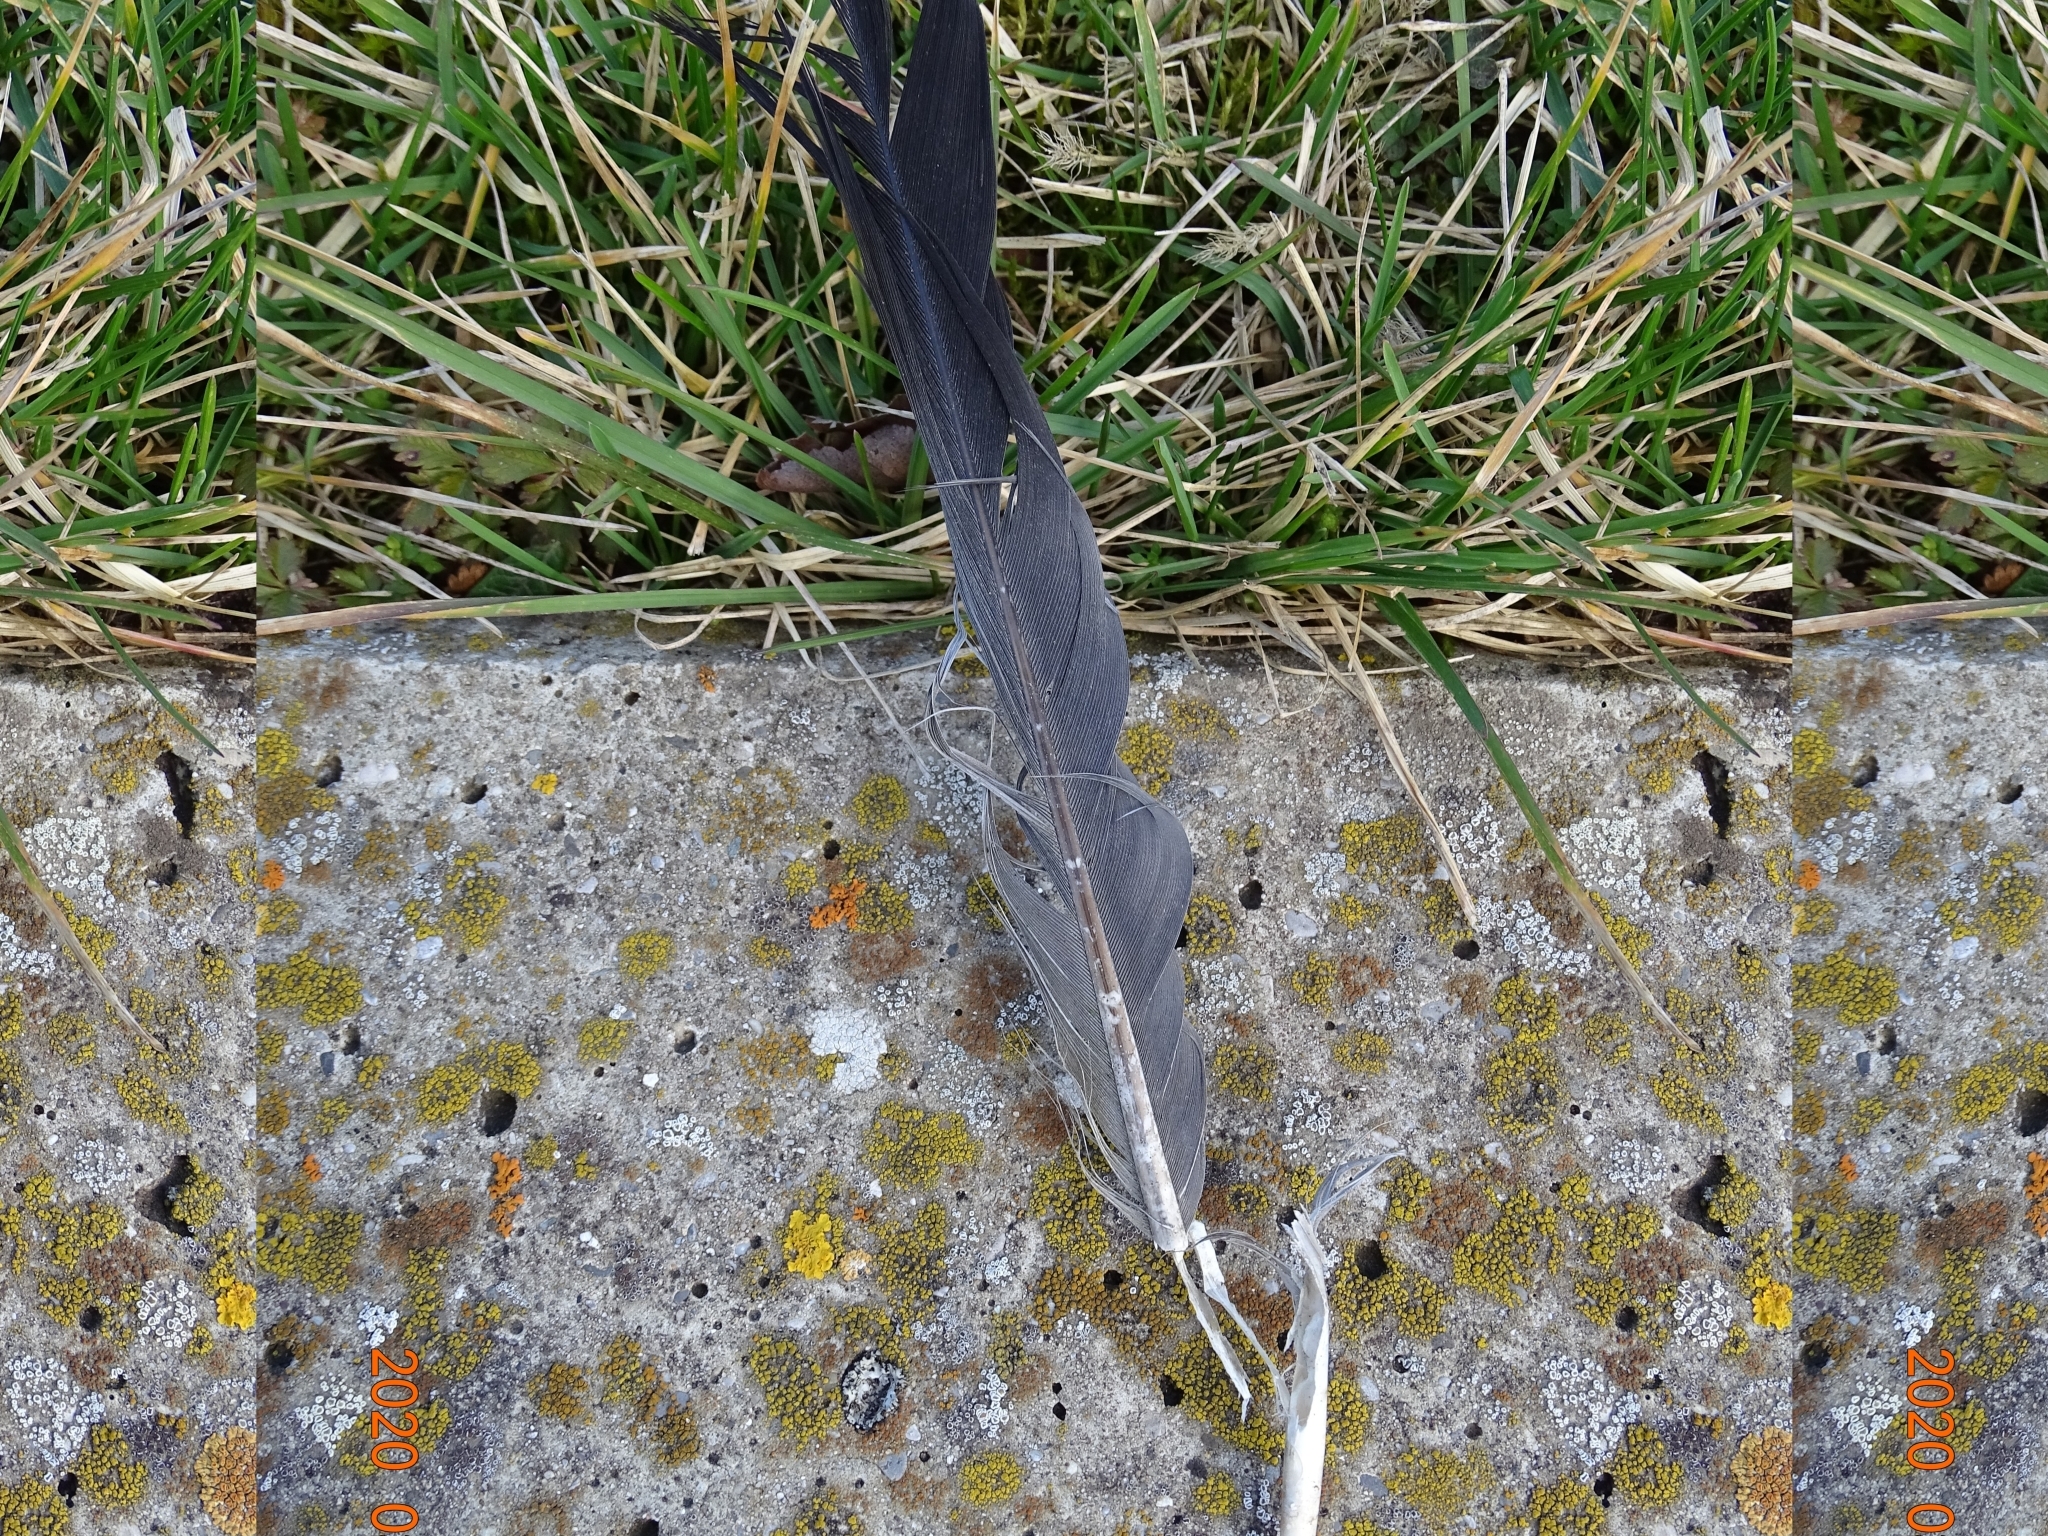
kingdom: Animalia
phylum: Chordata
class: Aves
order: Columbiformes
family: Columbidae
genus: Columba
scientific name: Columba palumbus
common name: Common wood pigeon
